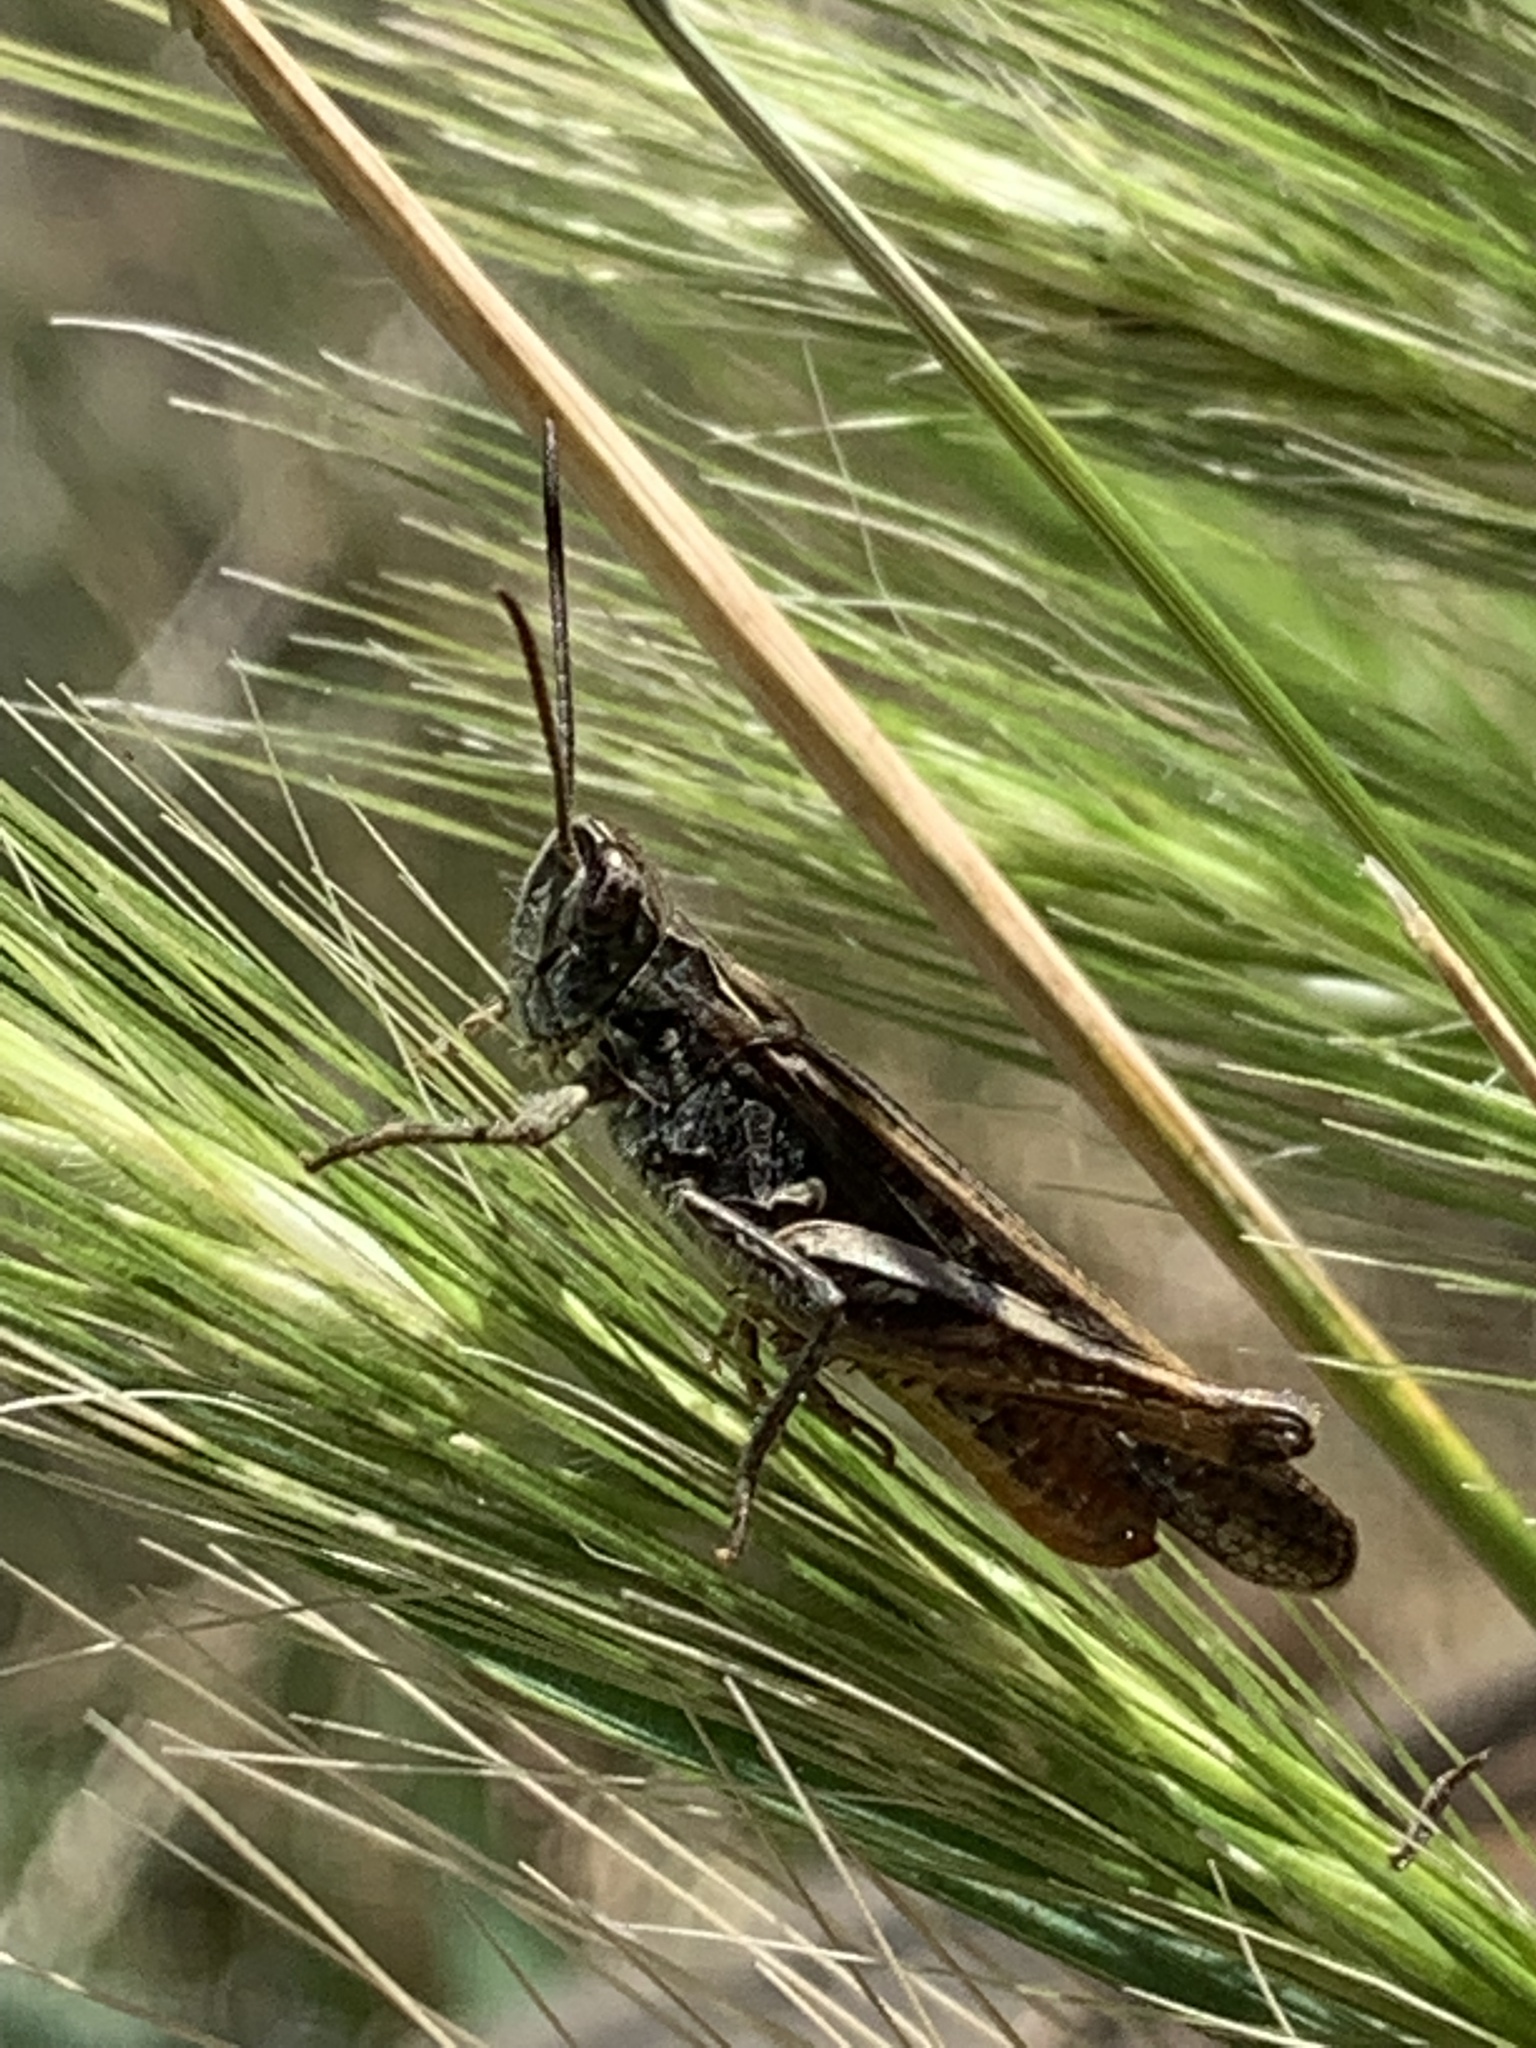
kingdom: Animalia
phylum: Arthropoda
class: Insecta
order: Orthoptera
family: Acrididae
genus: Chorthippus
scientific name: Chorthippus brunneus
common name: Field grasshopper
